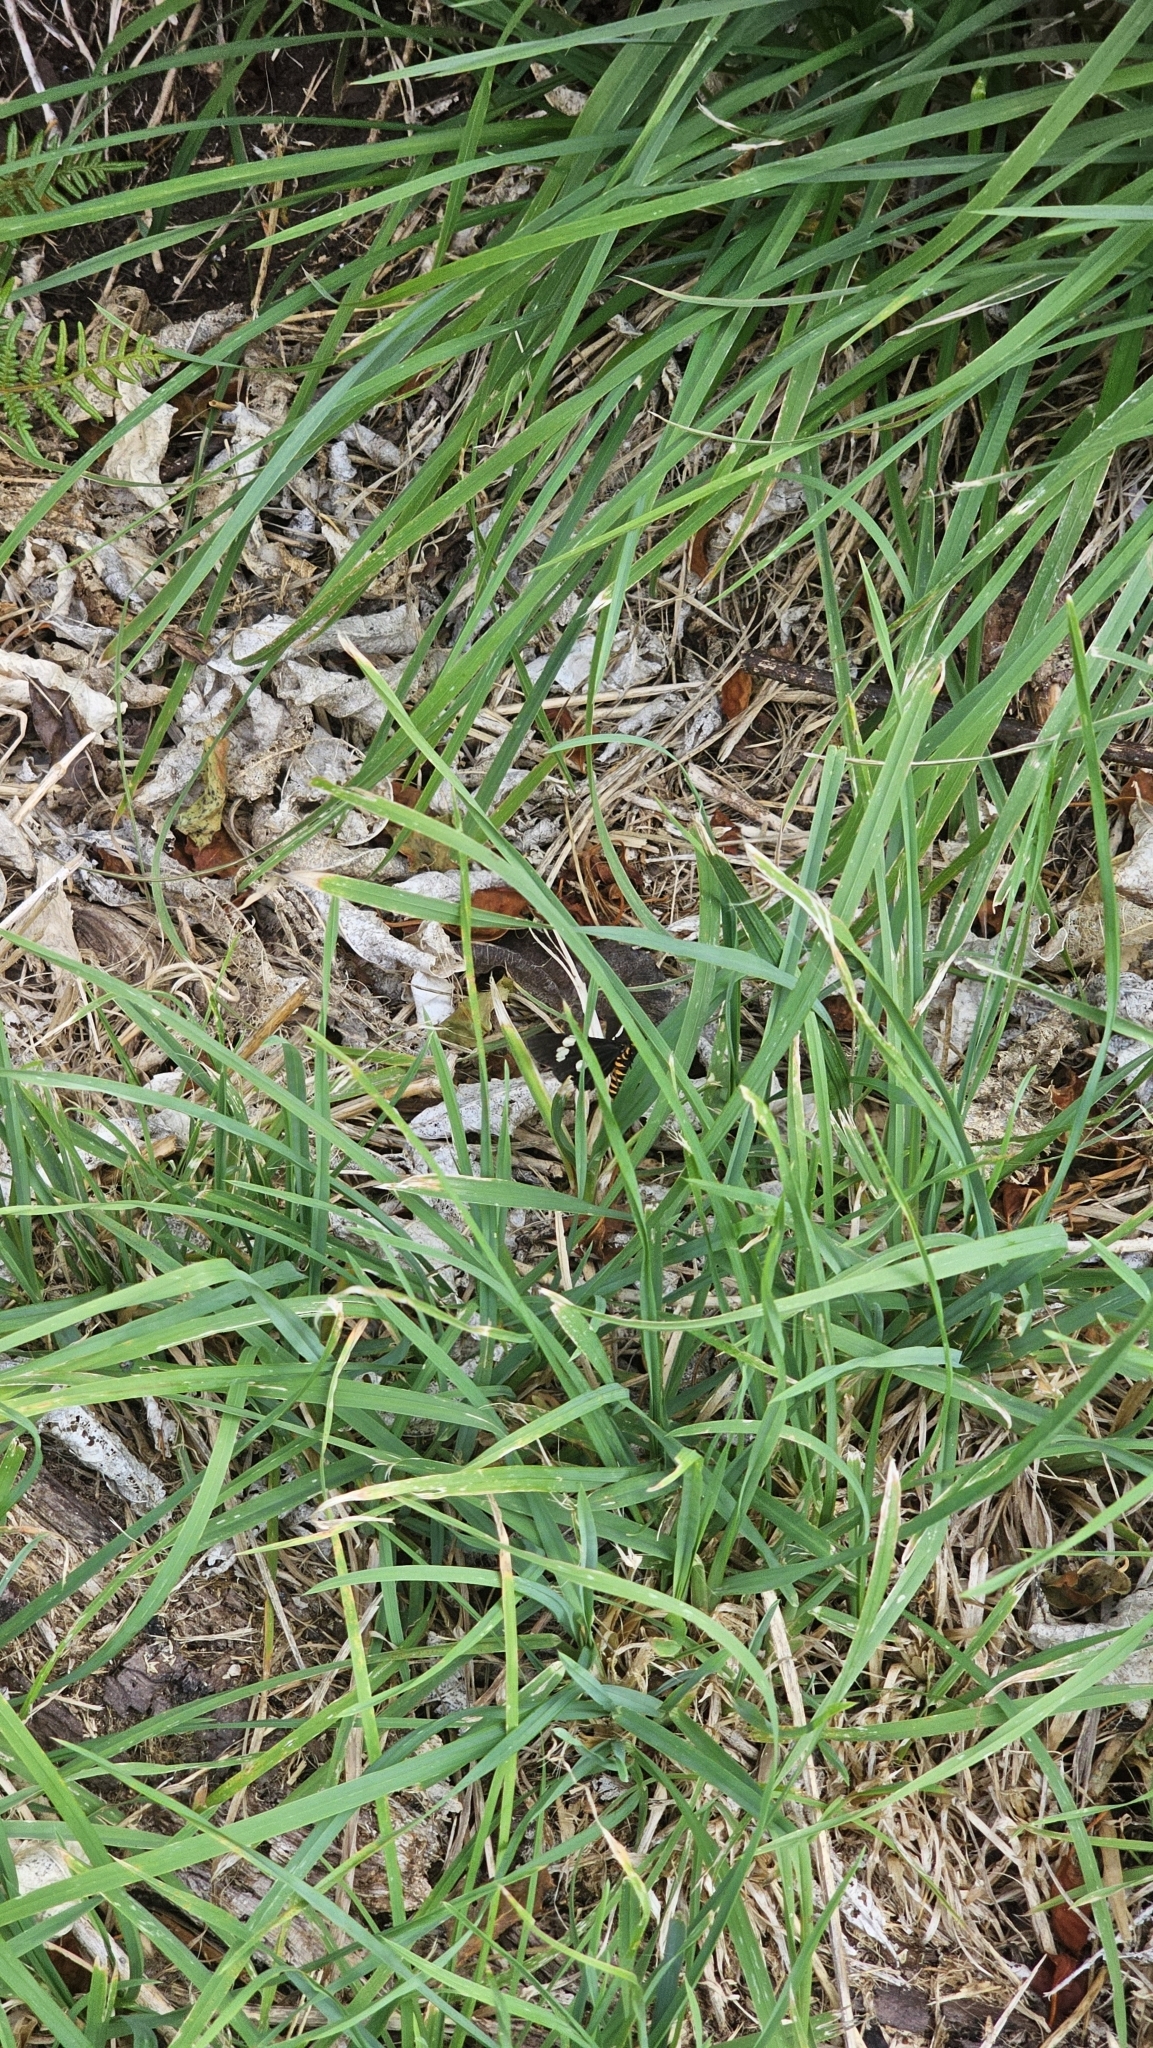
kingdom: Animalia
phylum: Arthropoda
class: Insecta
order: Lepidoptera
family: Erebidae
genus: Nyctemera
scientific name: Nyctemera annulatum
